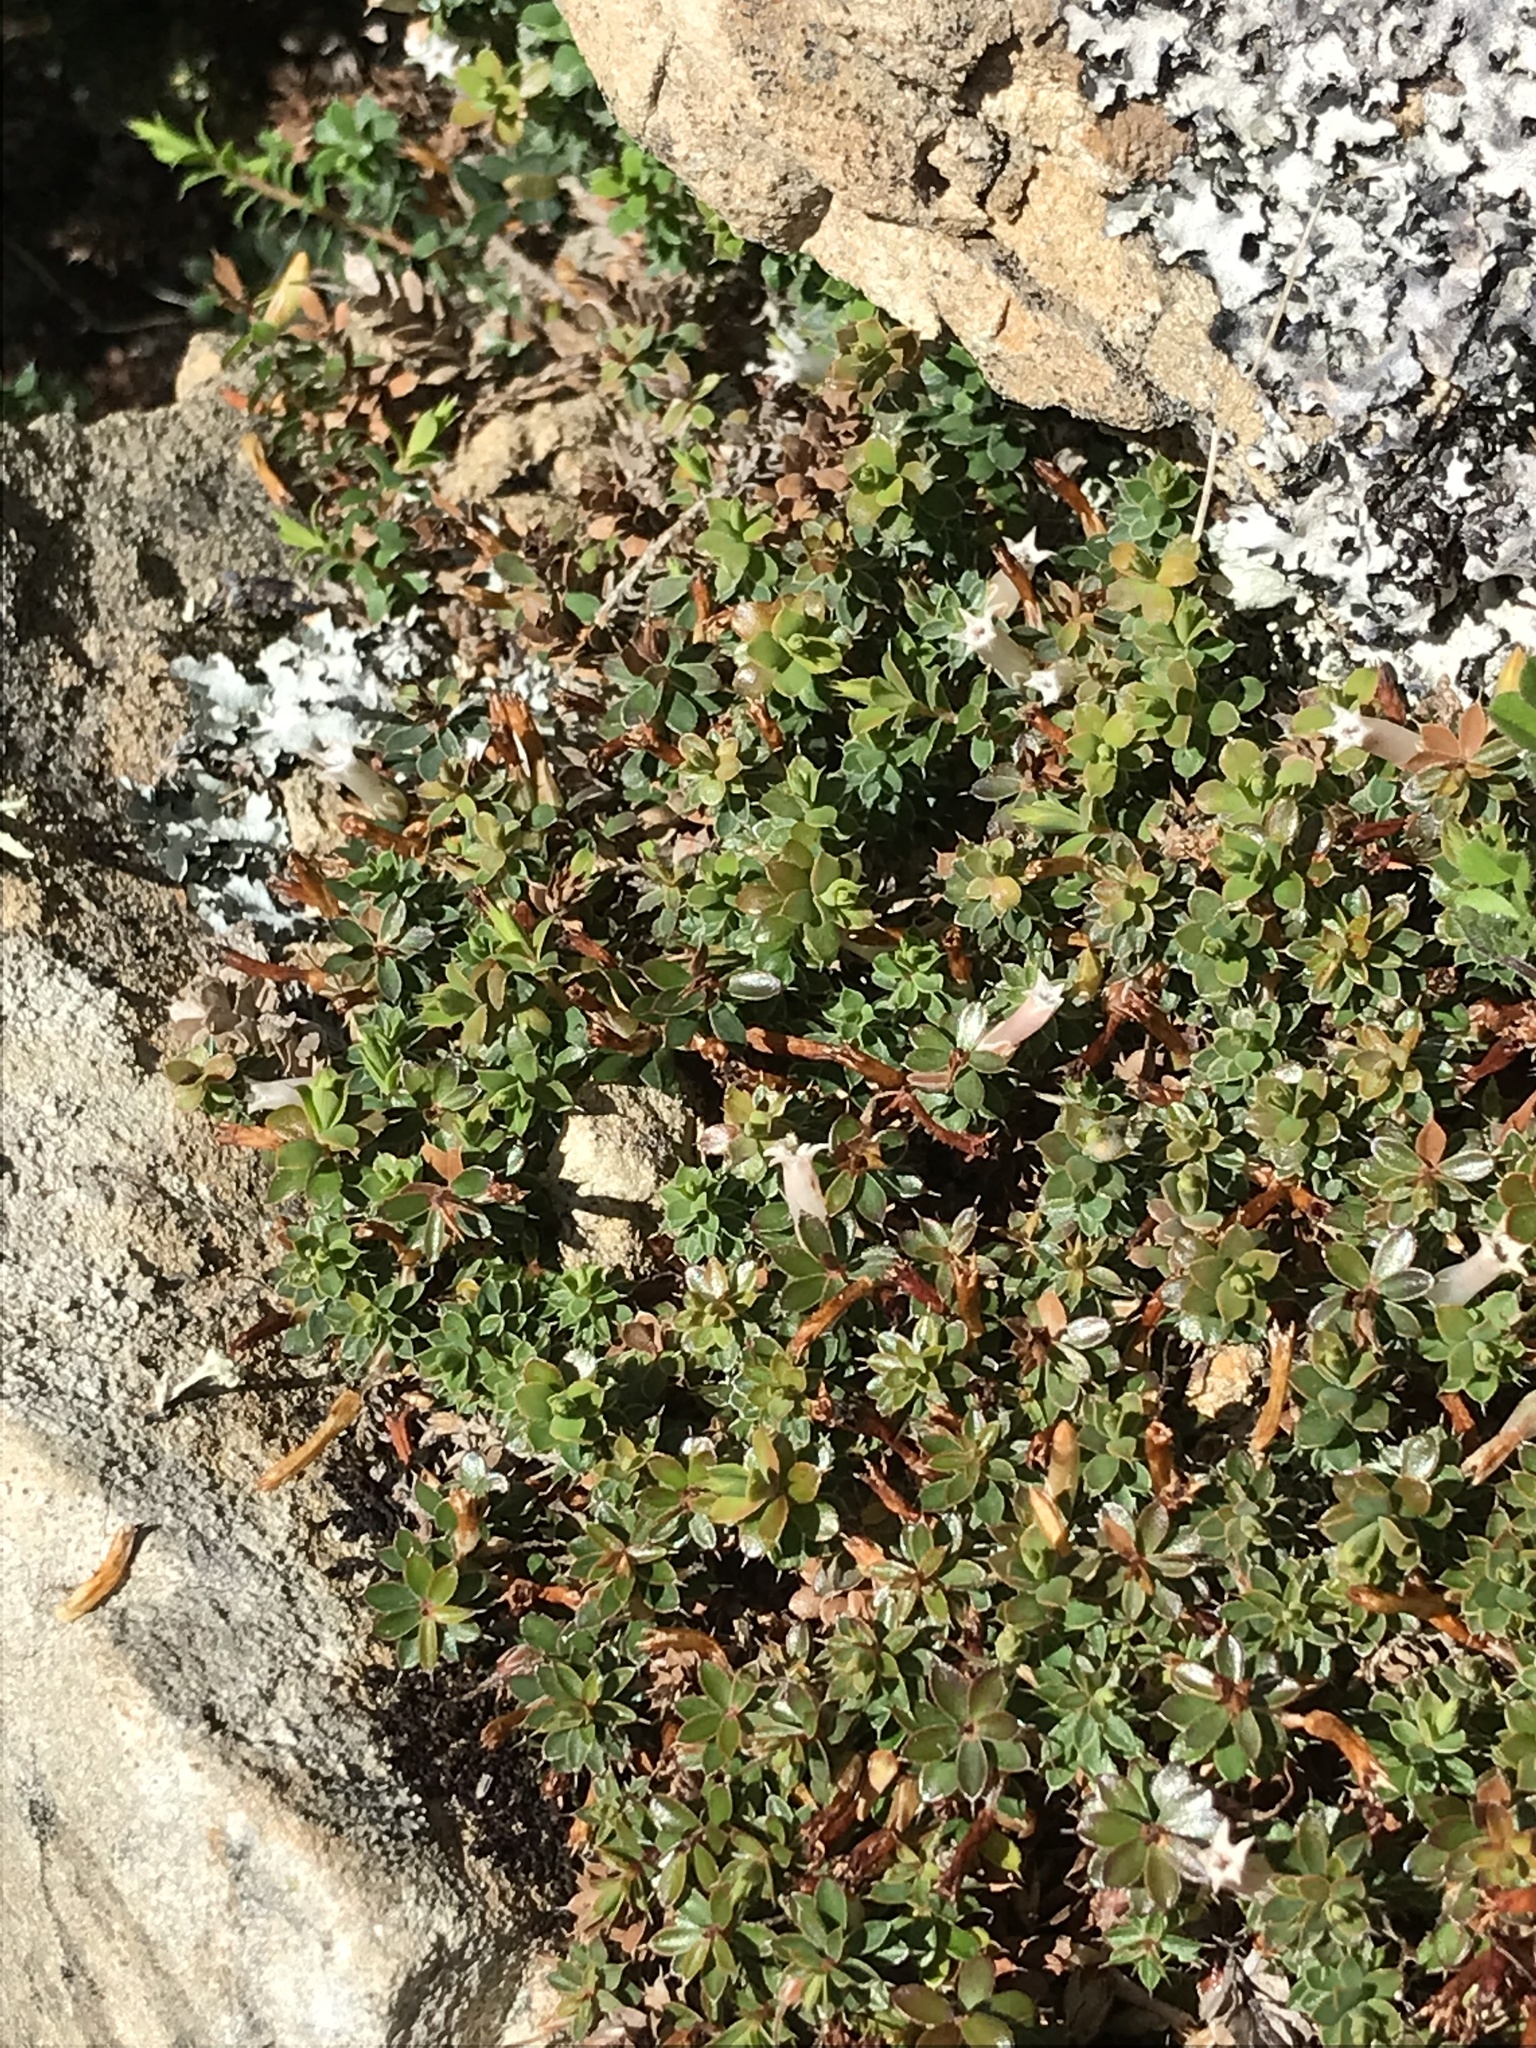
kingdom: Plantae
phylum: Tracheophyta
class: Magnoliopsida
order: Ericales
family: Ericaceae
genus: Styphelia
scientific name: Styphelia nesophila
